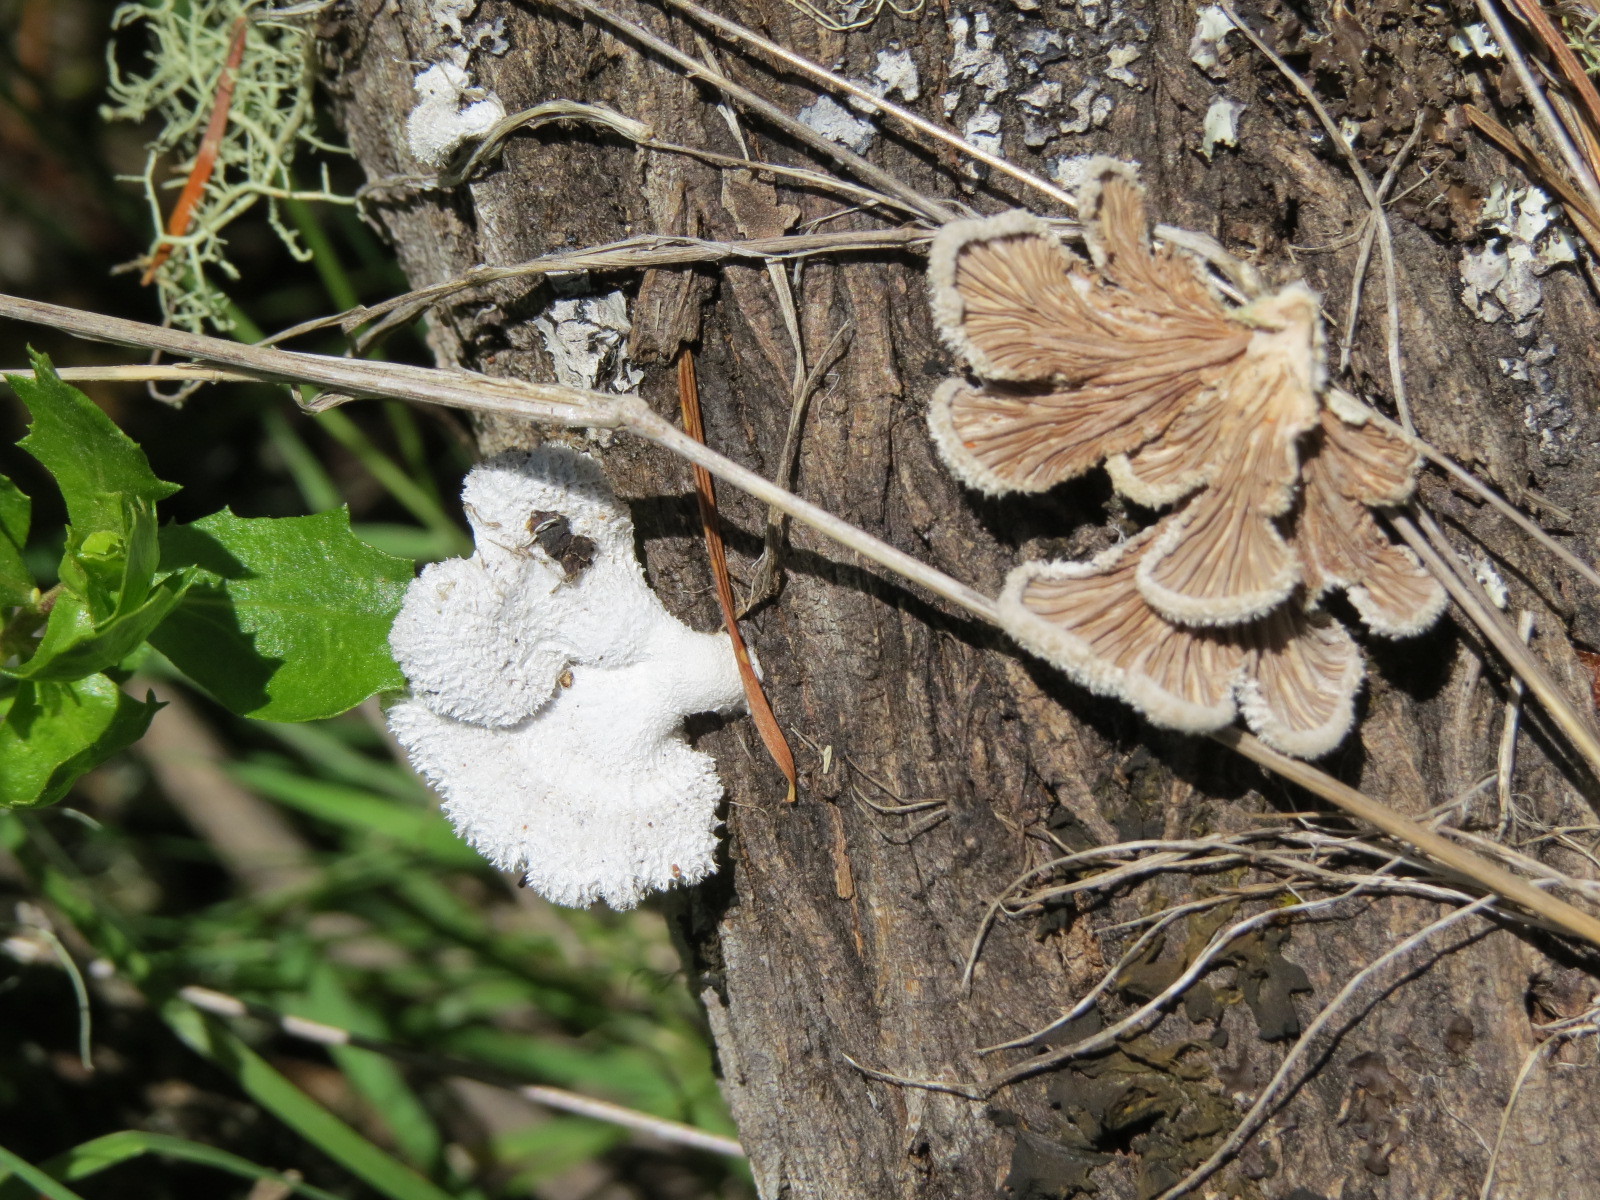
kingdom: Fungi
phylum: Basidiomycota
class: Agaricomycetes
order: Agaricales
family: Schizophyllaceae
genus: Schizophyllum
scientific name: Schizophyllum commune
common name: Common porecrust
